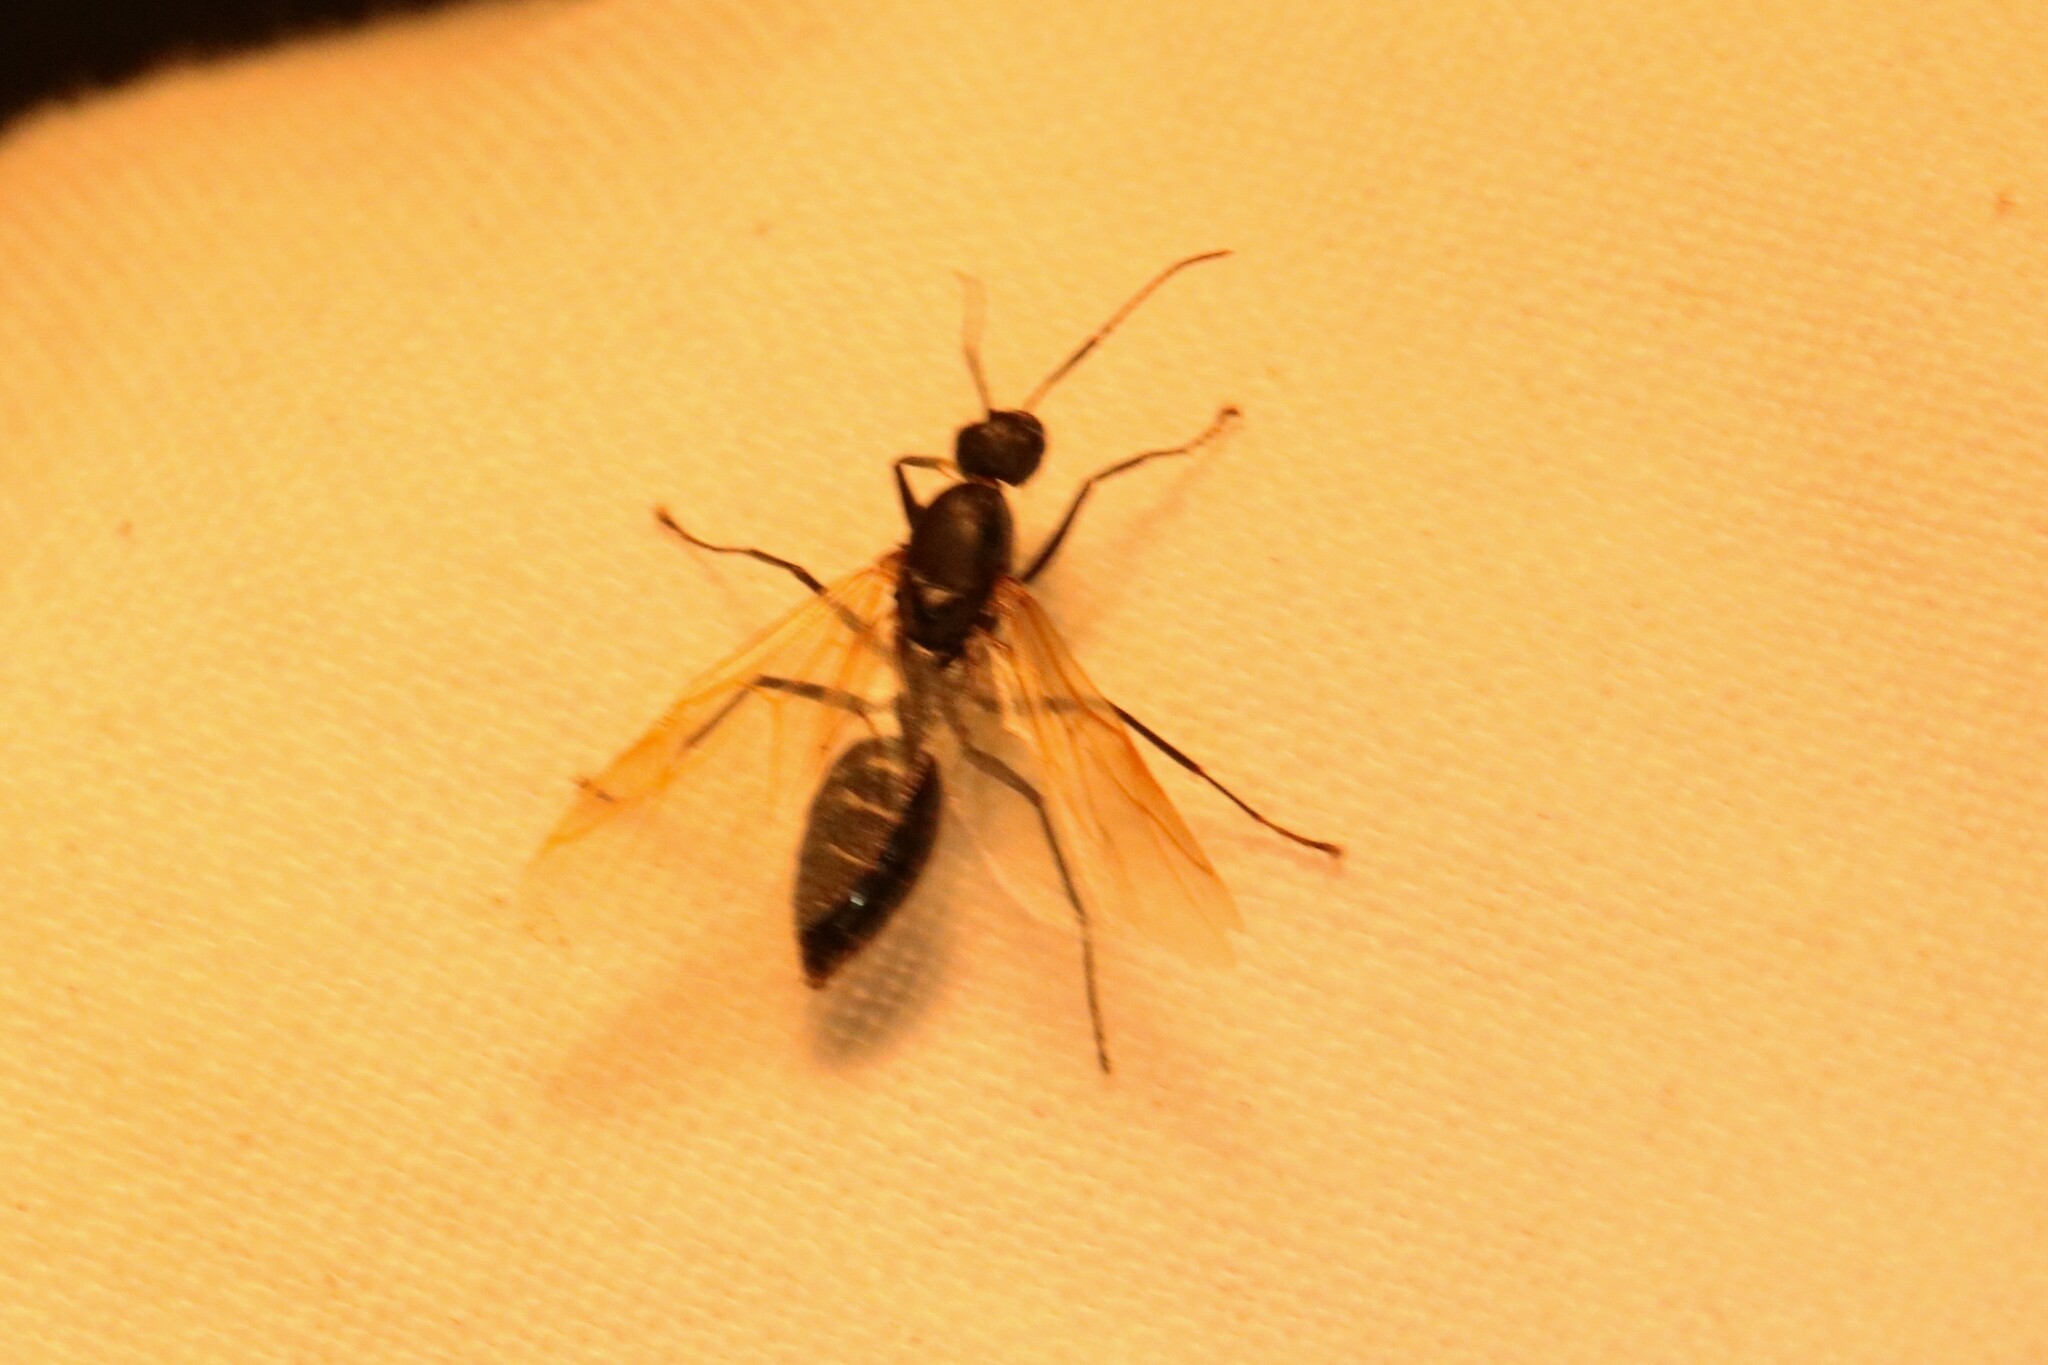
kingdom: Animalia
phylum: Arthropoda
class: Insecta
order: Hymenoptera
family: Formicidae
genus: Camponotus
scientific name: Camponotus pennsylvanicus
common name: Black carpenter ant
